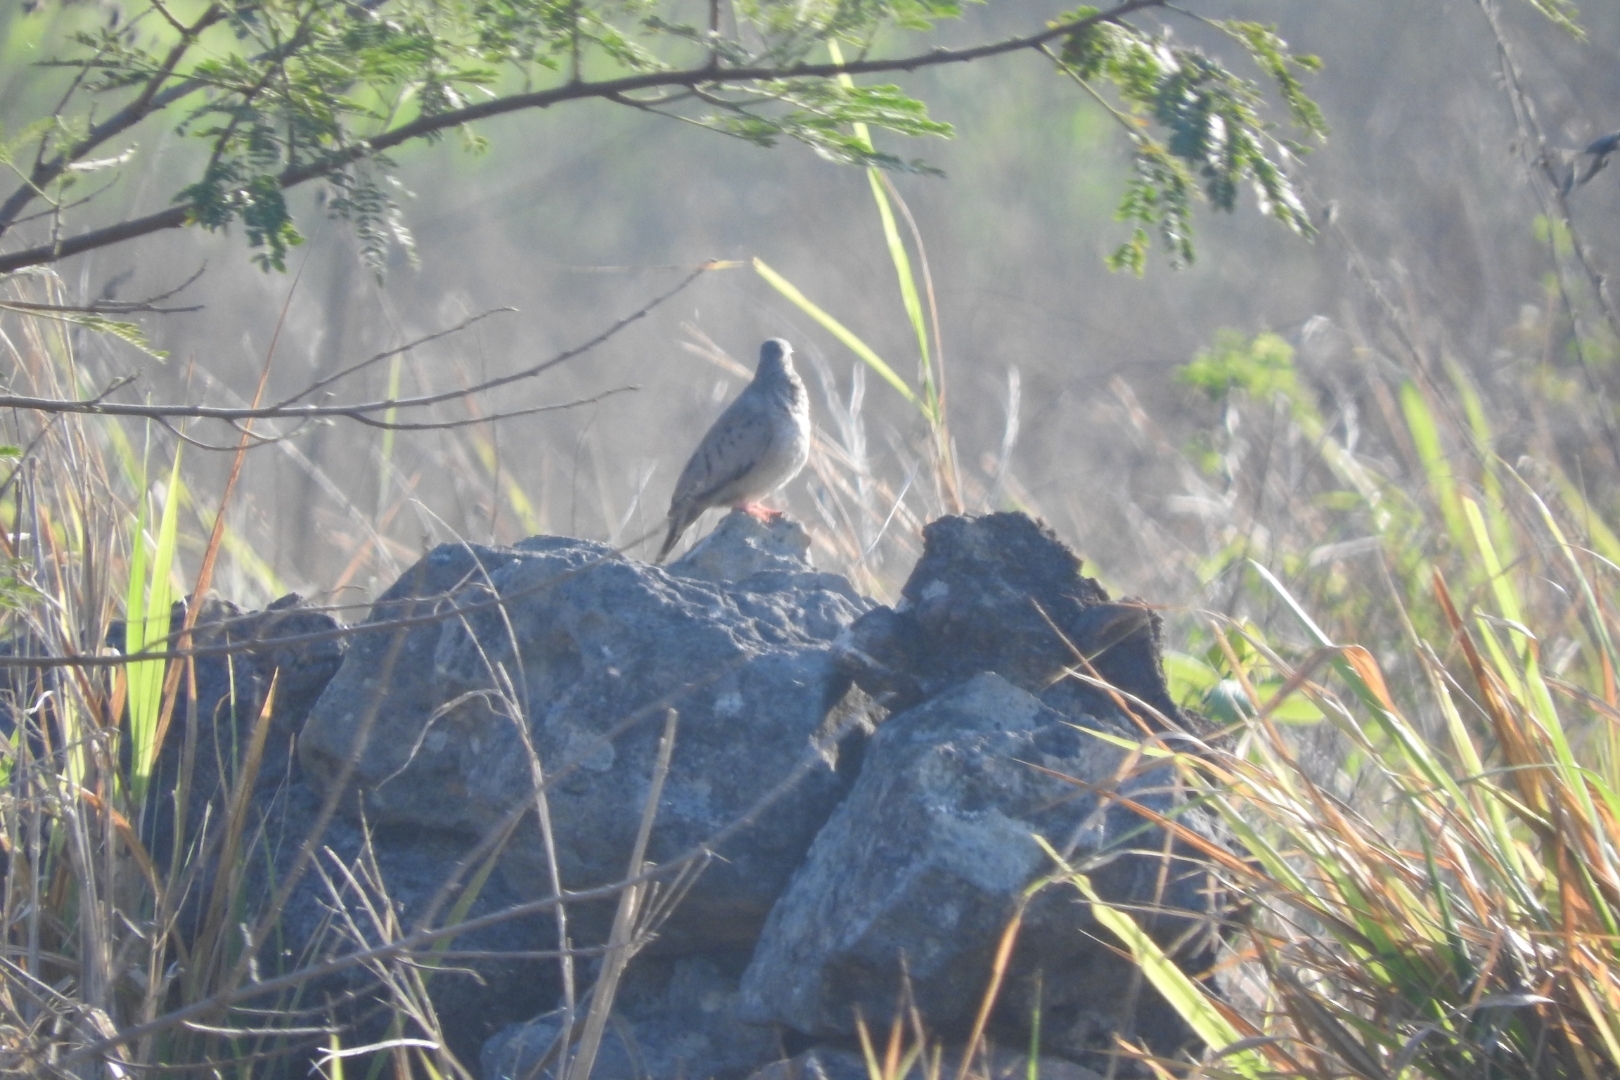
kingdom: Animalia
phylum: Chordata
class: Aves
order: Columbiformes
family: Columbidae
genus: Columbina
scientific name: Columbina passerina
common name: Common ground-dove
